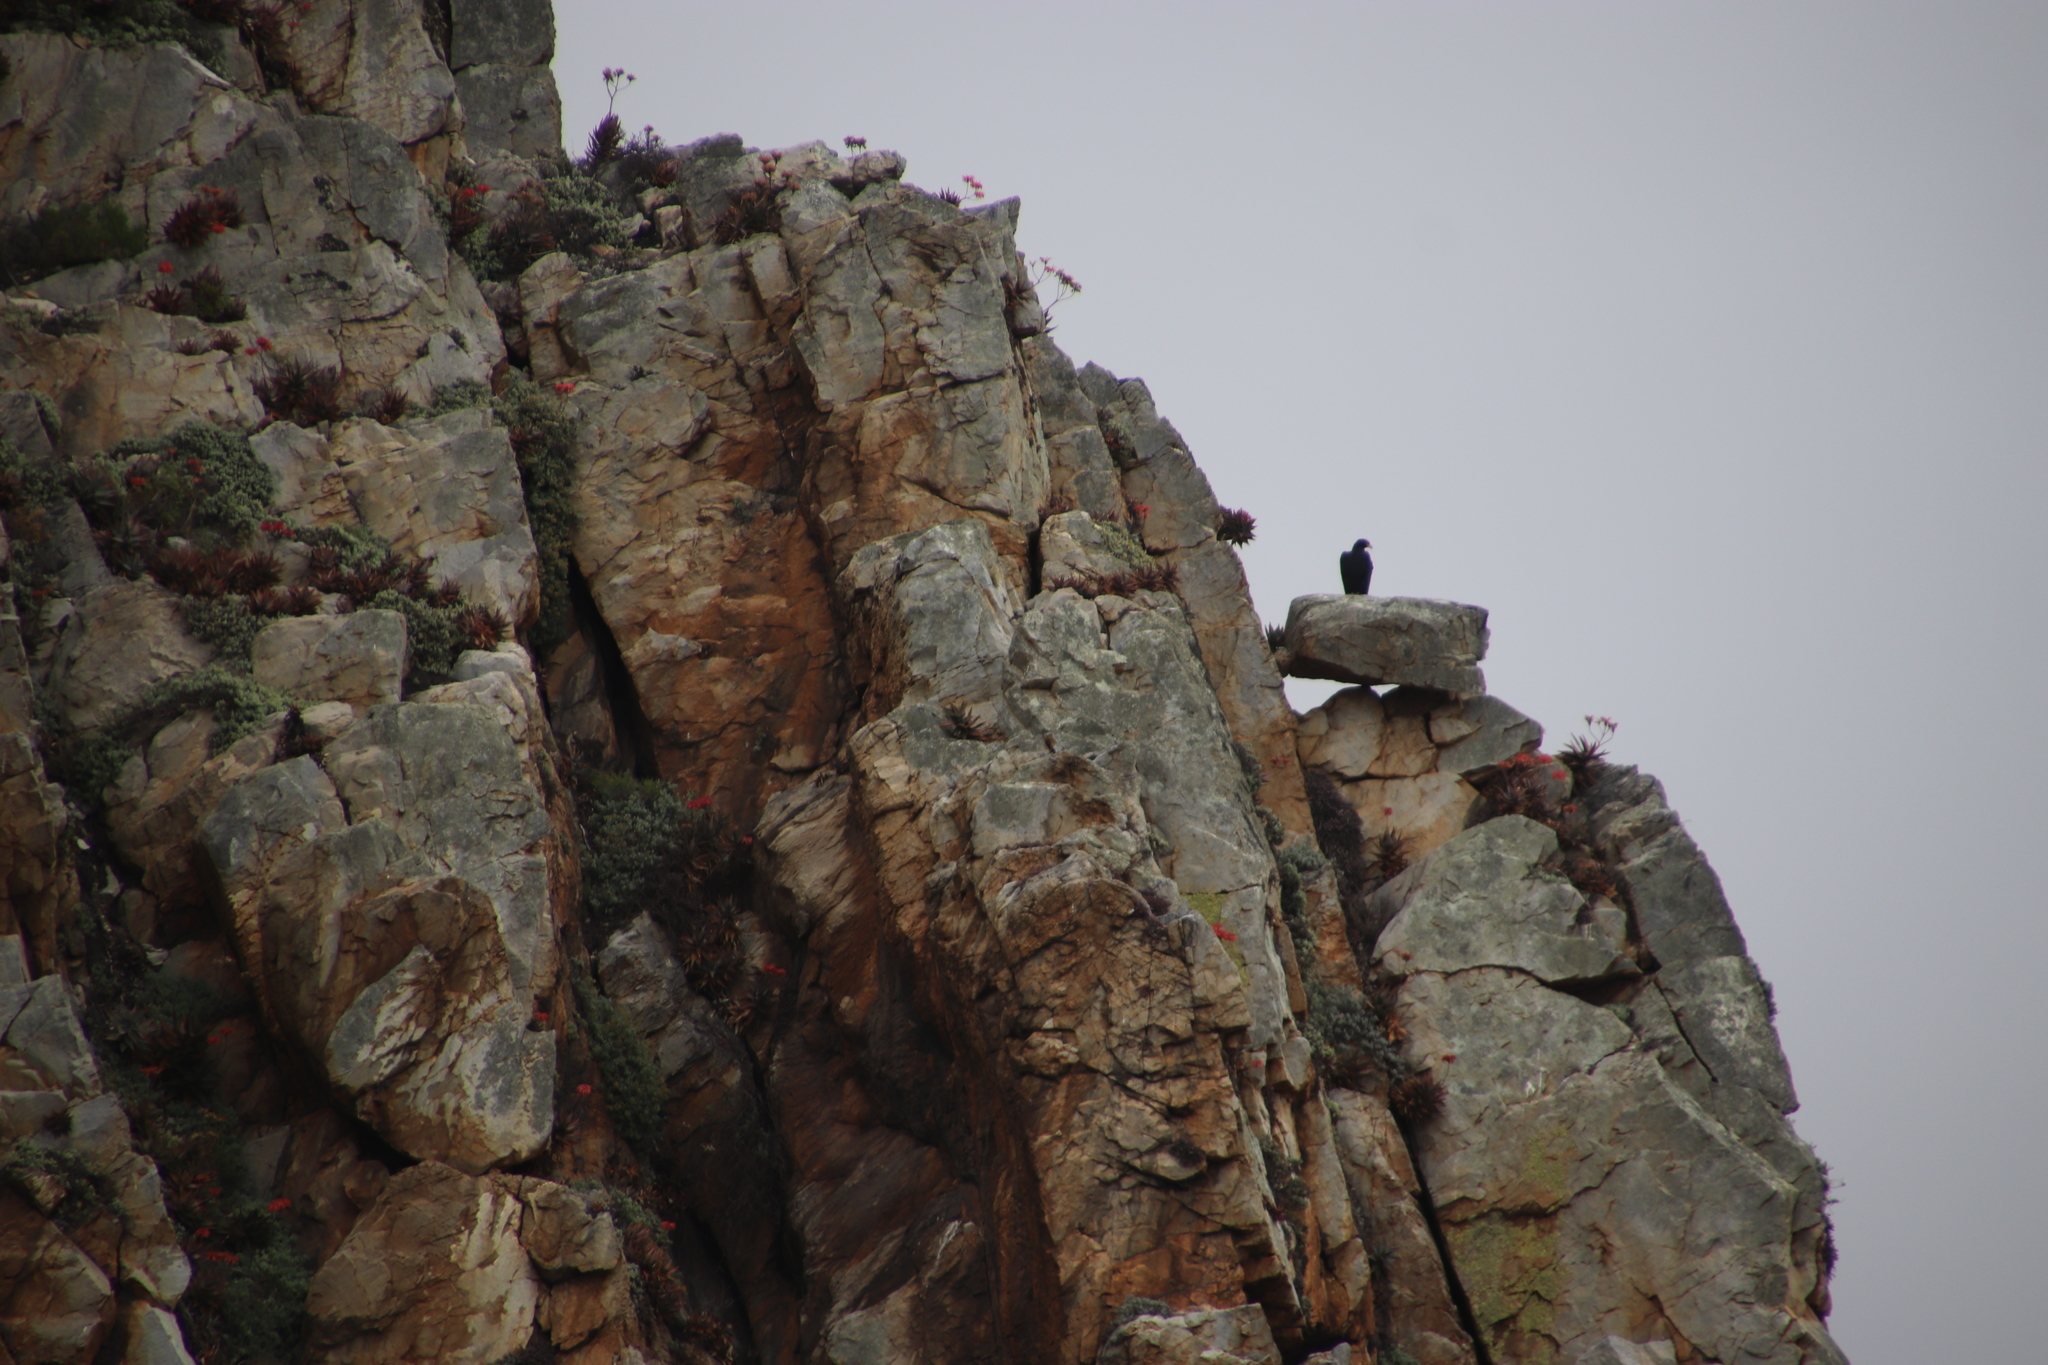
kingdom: Plantae
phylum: Tracheophyta
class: Liliopsida
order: Asparagales
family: Asphodelaceae
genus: Aloe
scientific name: Aloe perfoliata
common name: Mitra aloe
